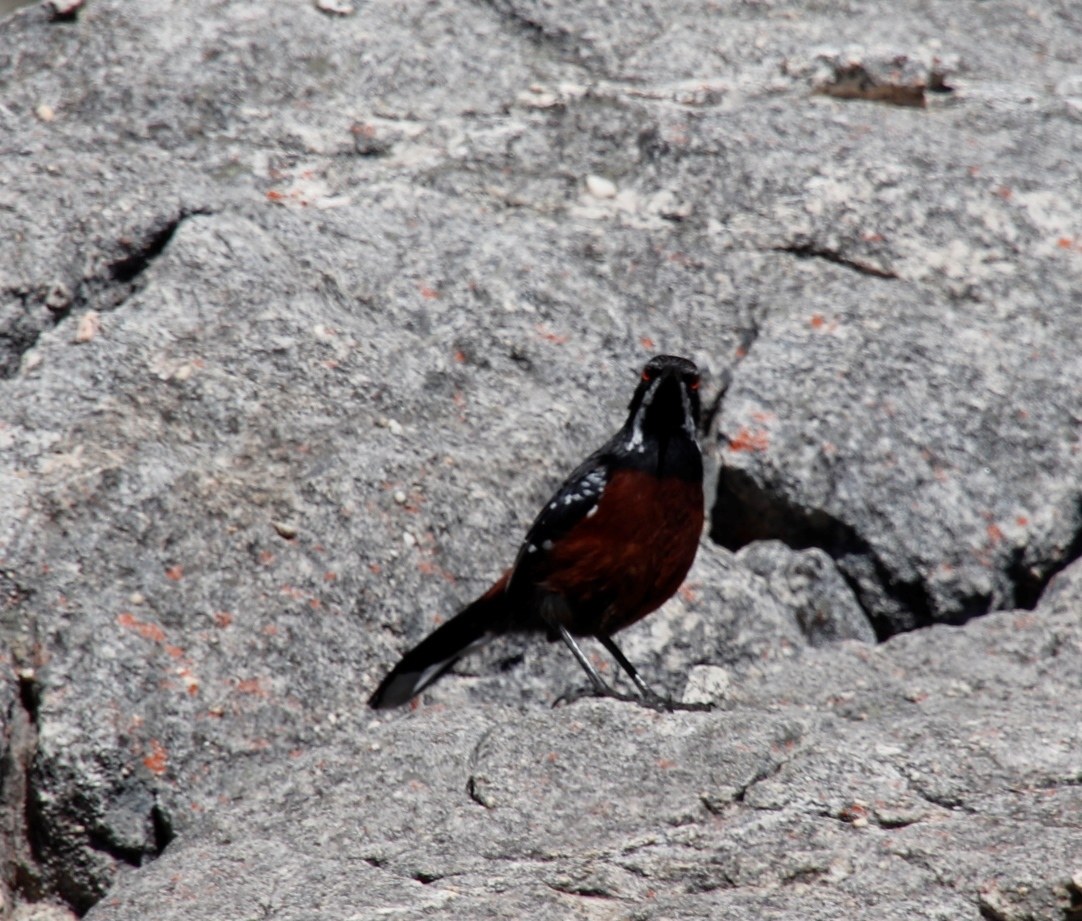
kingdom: Animalia
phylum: Chordata
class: Aves
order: Passeriformes
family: Chaetopidae
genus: Chaetops
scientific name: Chaetops frenatus
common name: Cape rockjumper
